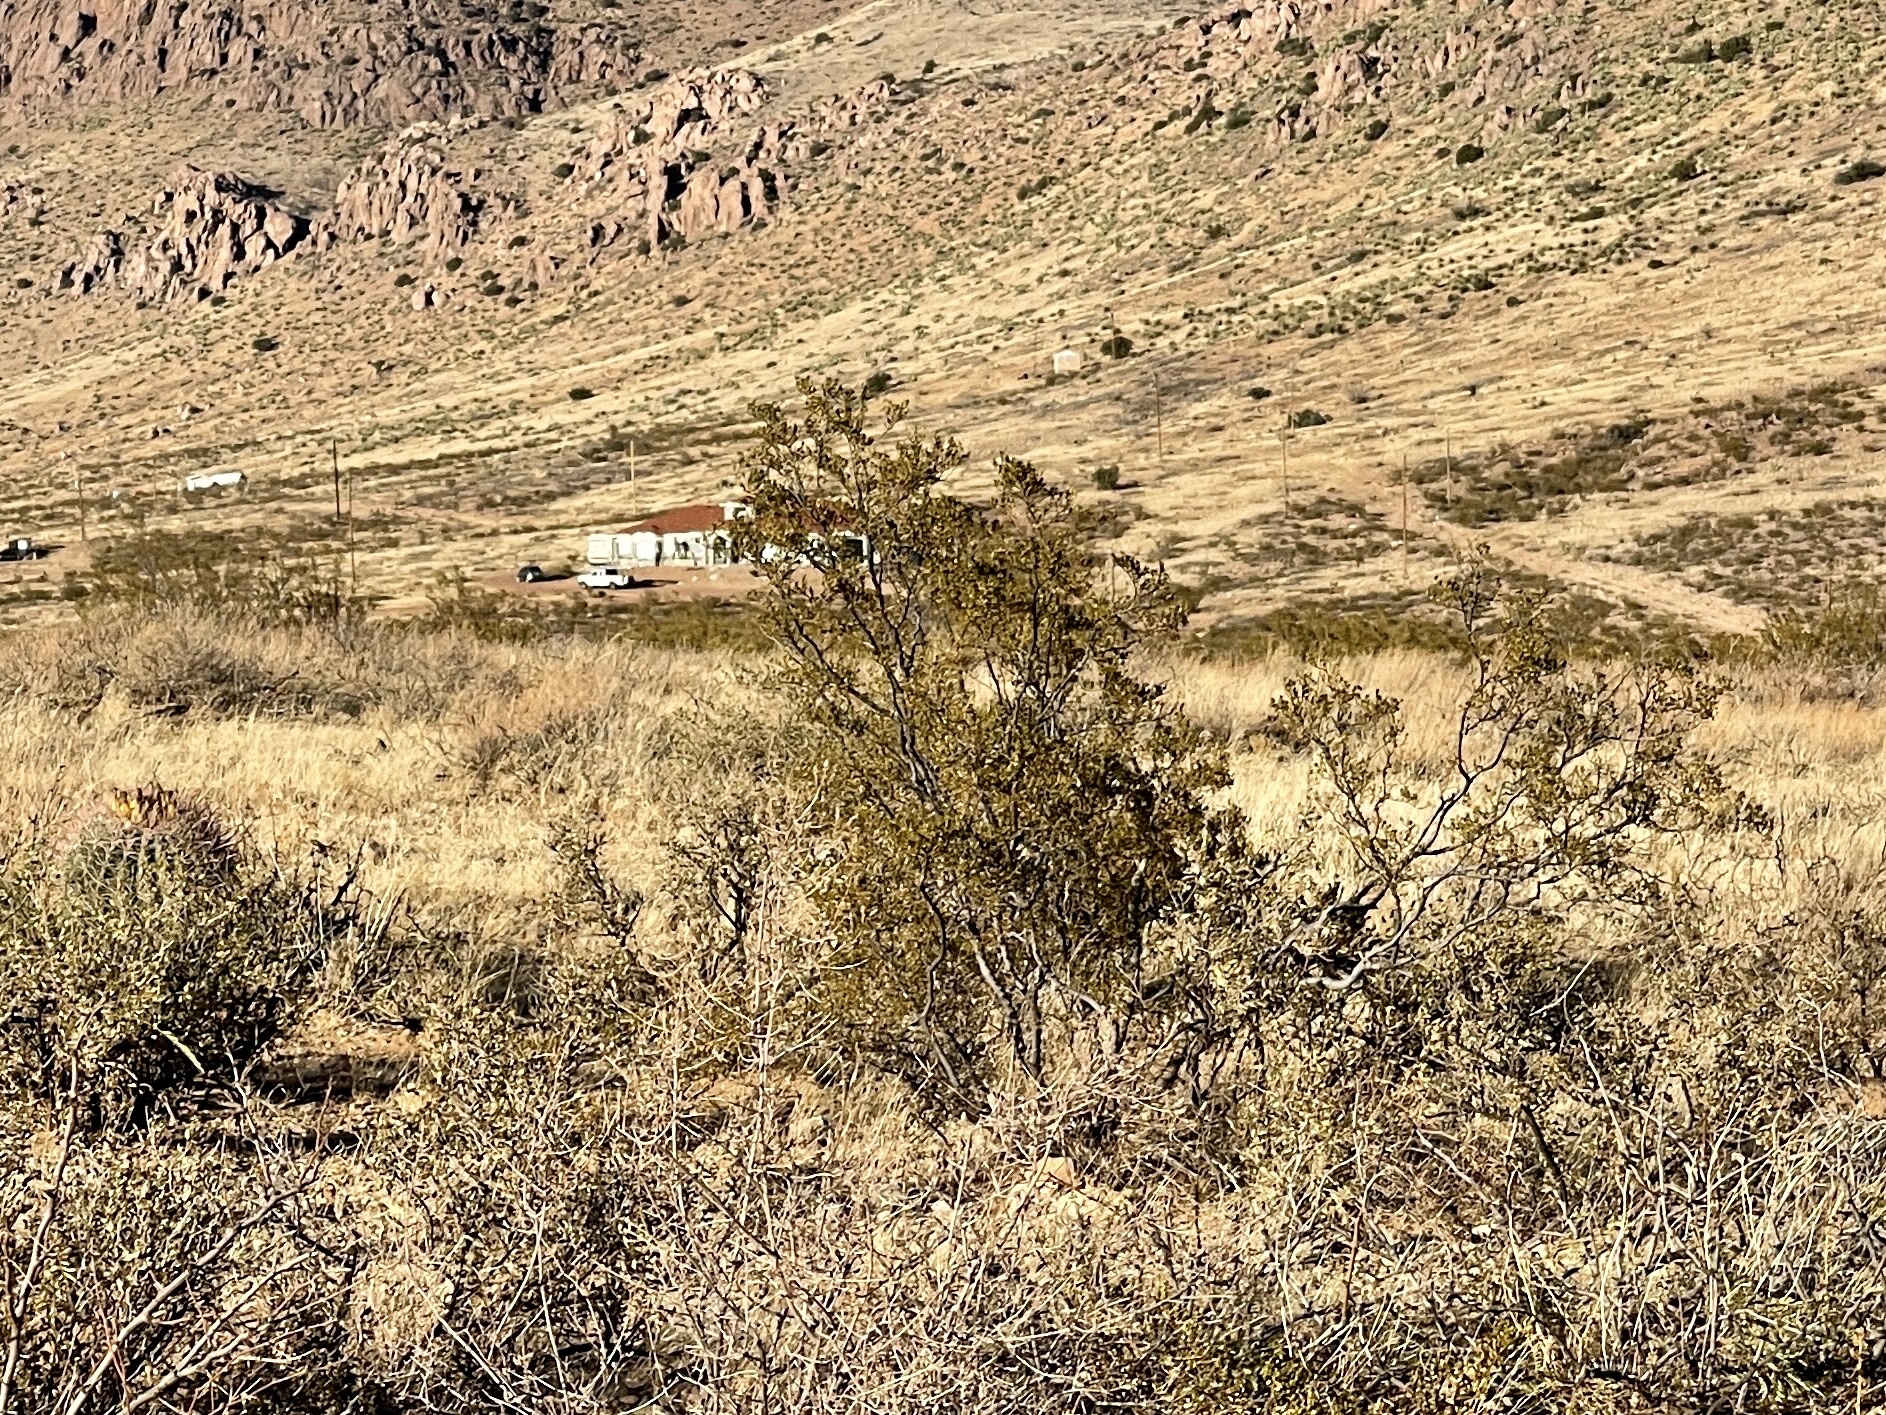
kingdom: Plantae
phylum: Tracheophyta
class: Magnoliopsida
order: Zygophyllales
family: Zygophyllaceae
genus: Larrea
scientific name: Larrea tridentata
